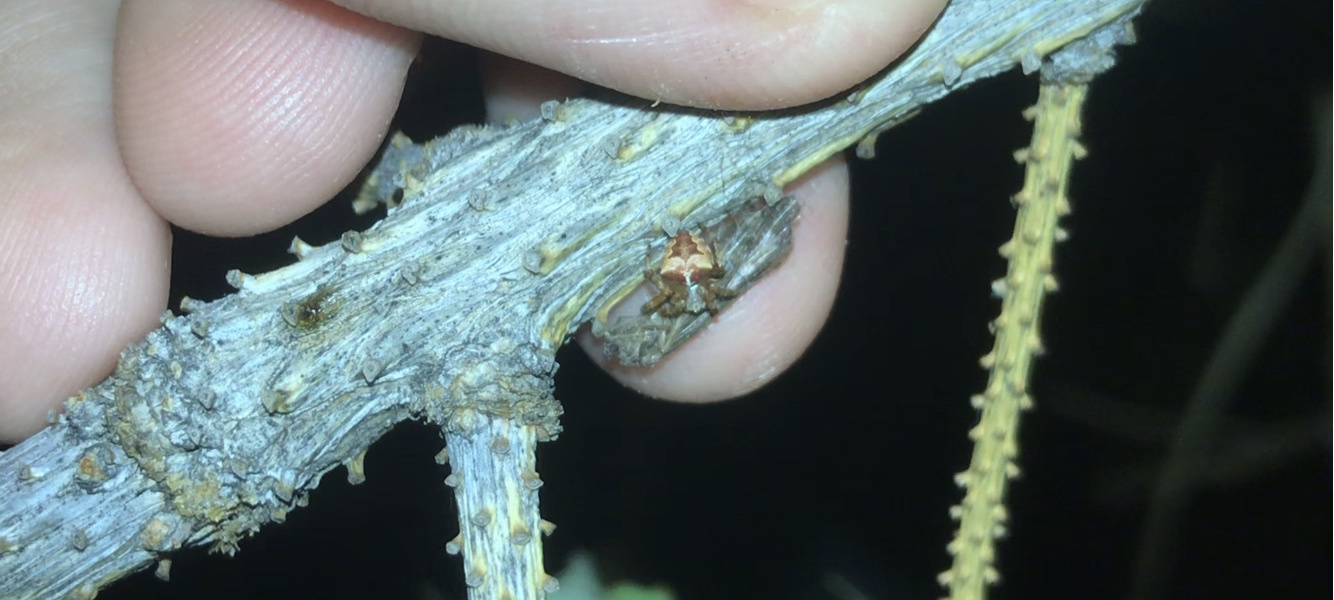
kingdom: Animalia
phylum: Arthropoda
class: Arachnida
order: Araneae
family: Araneidae
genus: Araneus
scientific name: Araneus gemmoides
